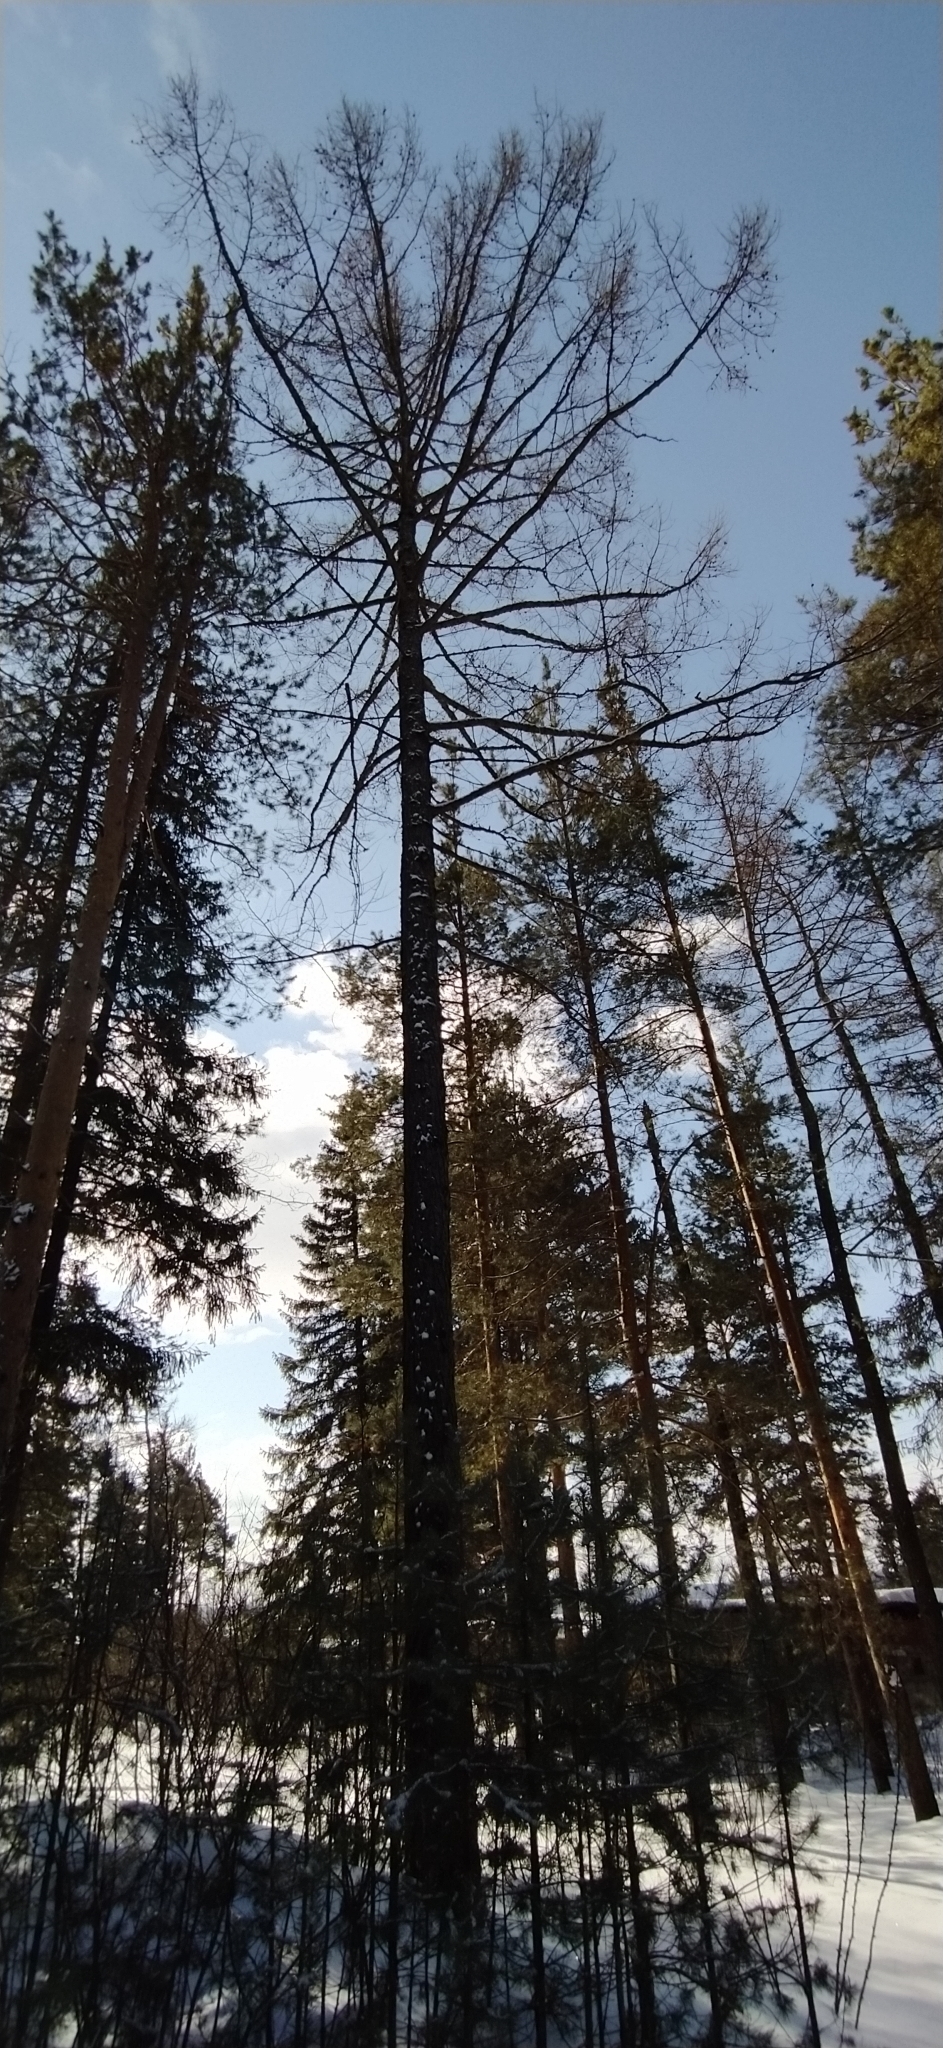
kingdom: Plantae
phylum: Tracheophyta
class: Pinopsida
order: Pinales
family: Pinaceae
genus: Larix
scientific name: Larix sibirica
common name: Siberian larch
